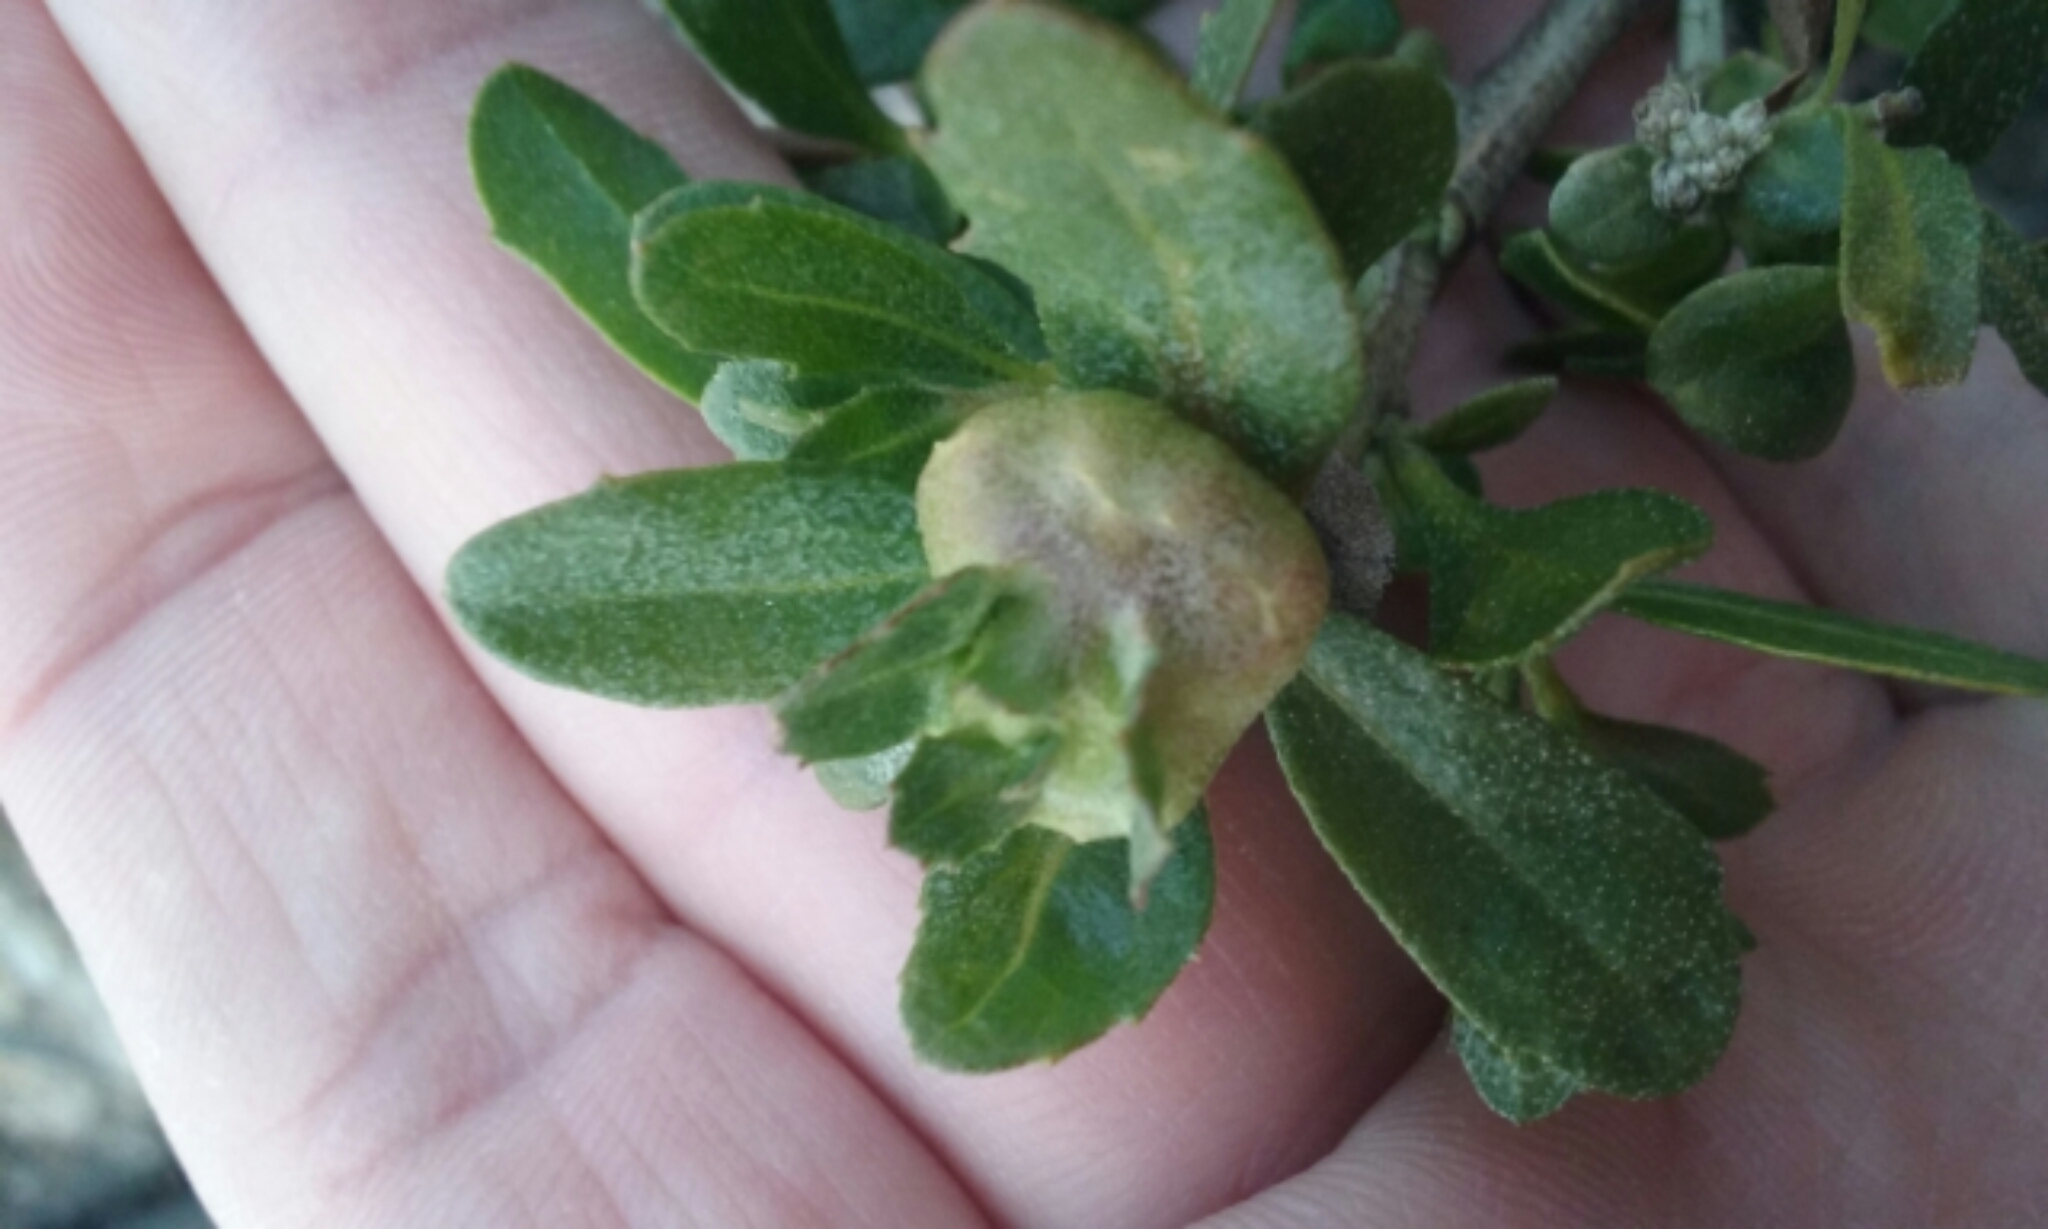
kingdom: Animalia
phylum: Arthropoda
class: Insecta
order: Diptera
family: Cecidomyiidae
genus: Rhopalomyia
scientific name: Rhopalomyia californica
